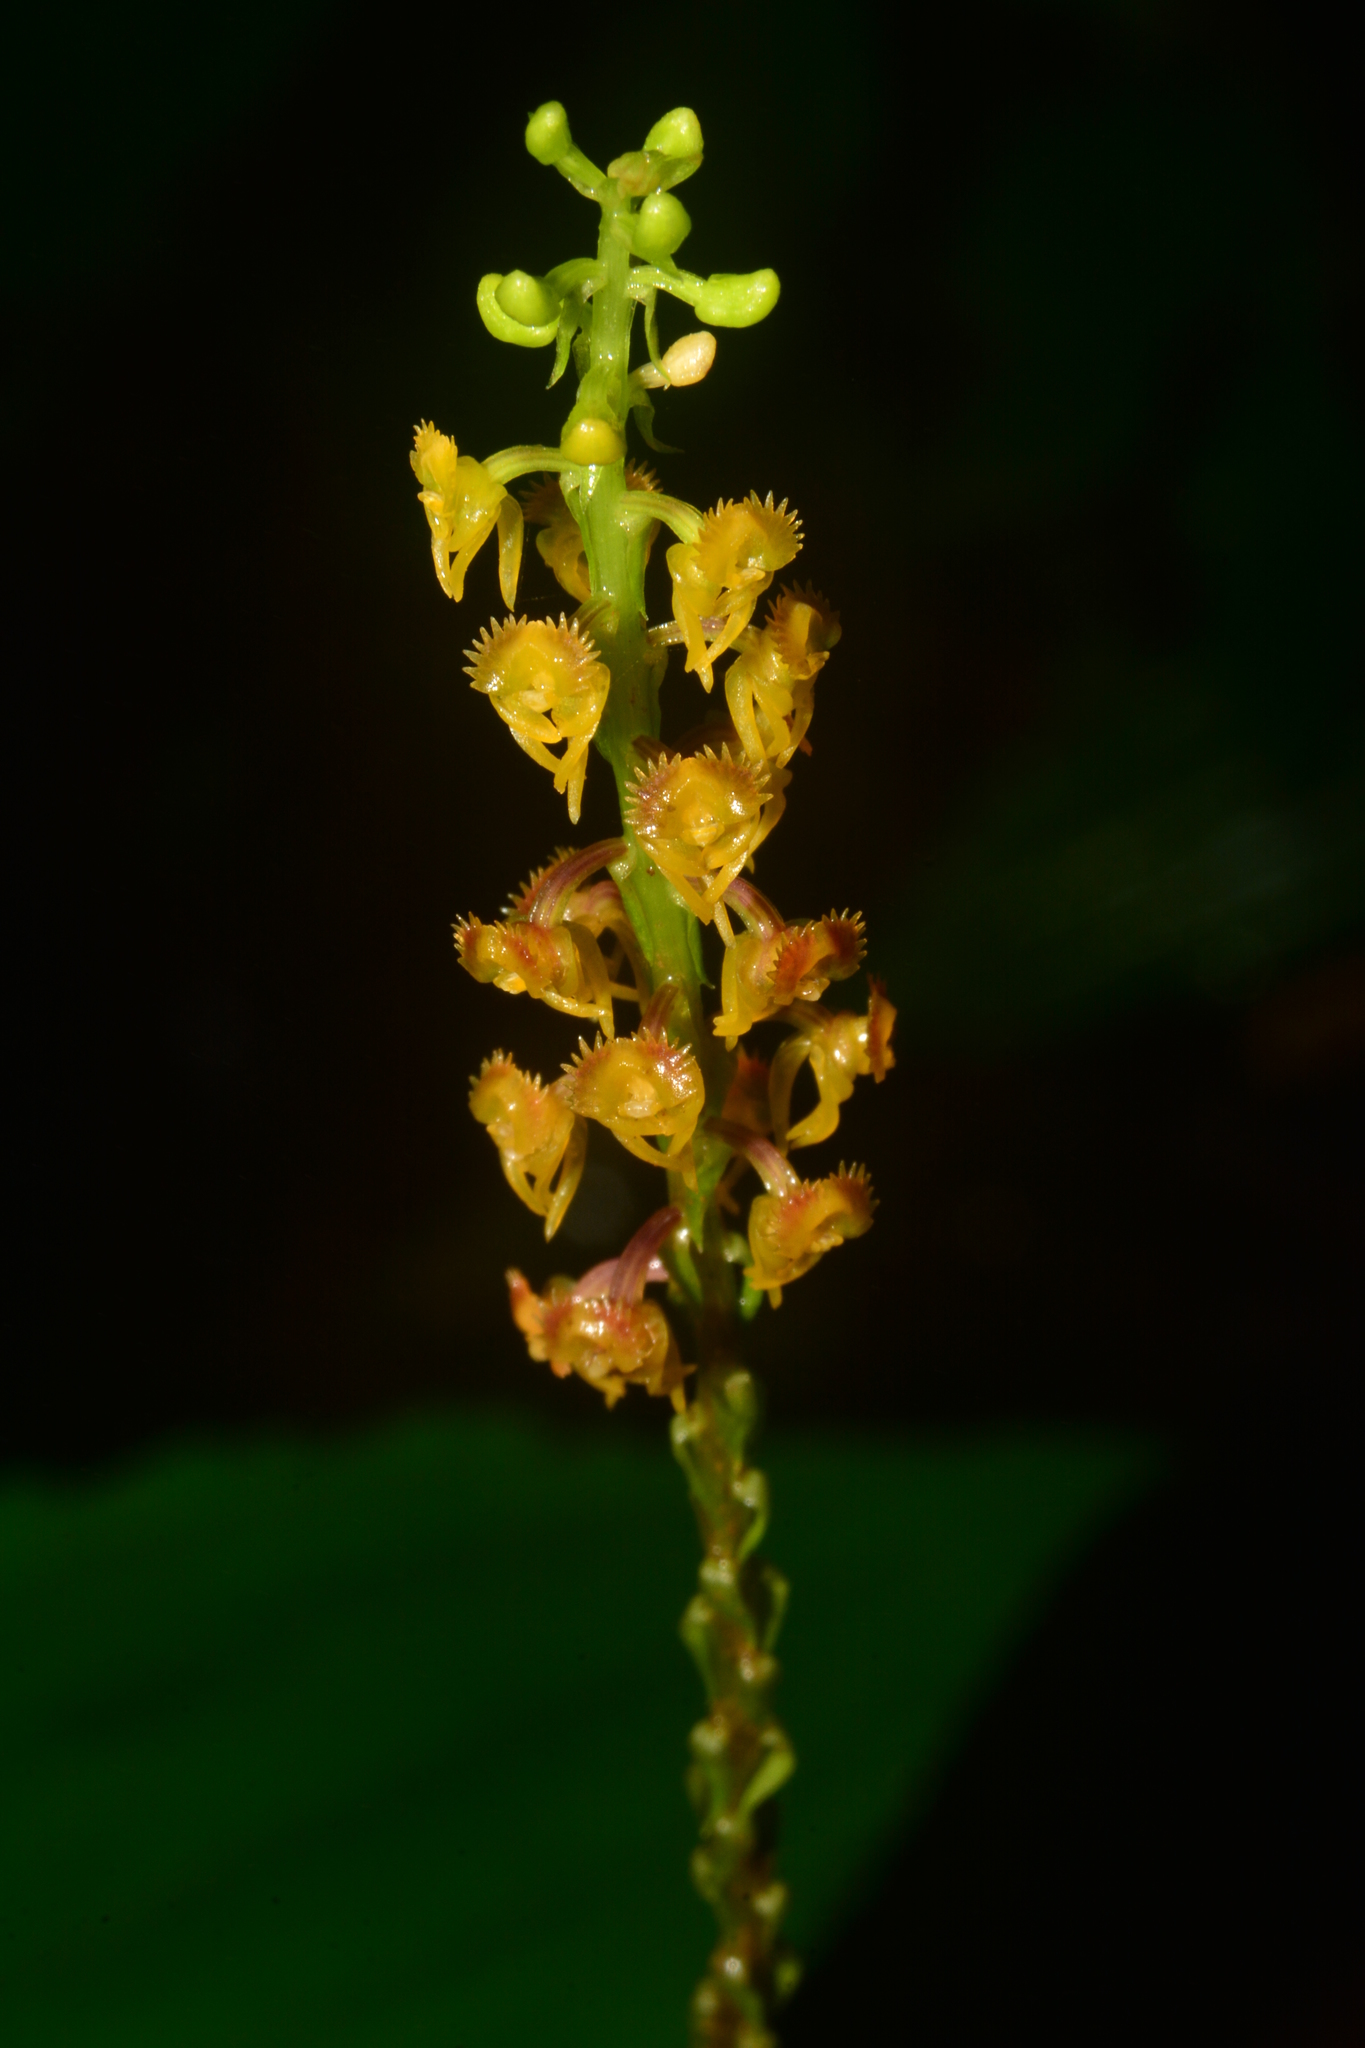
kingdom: Plantae
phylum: Tracheophyta
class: Liliopsida
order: Asparagales
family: Orchidaceae
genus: Malaxis
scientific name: Malaxis versicolor
